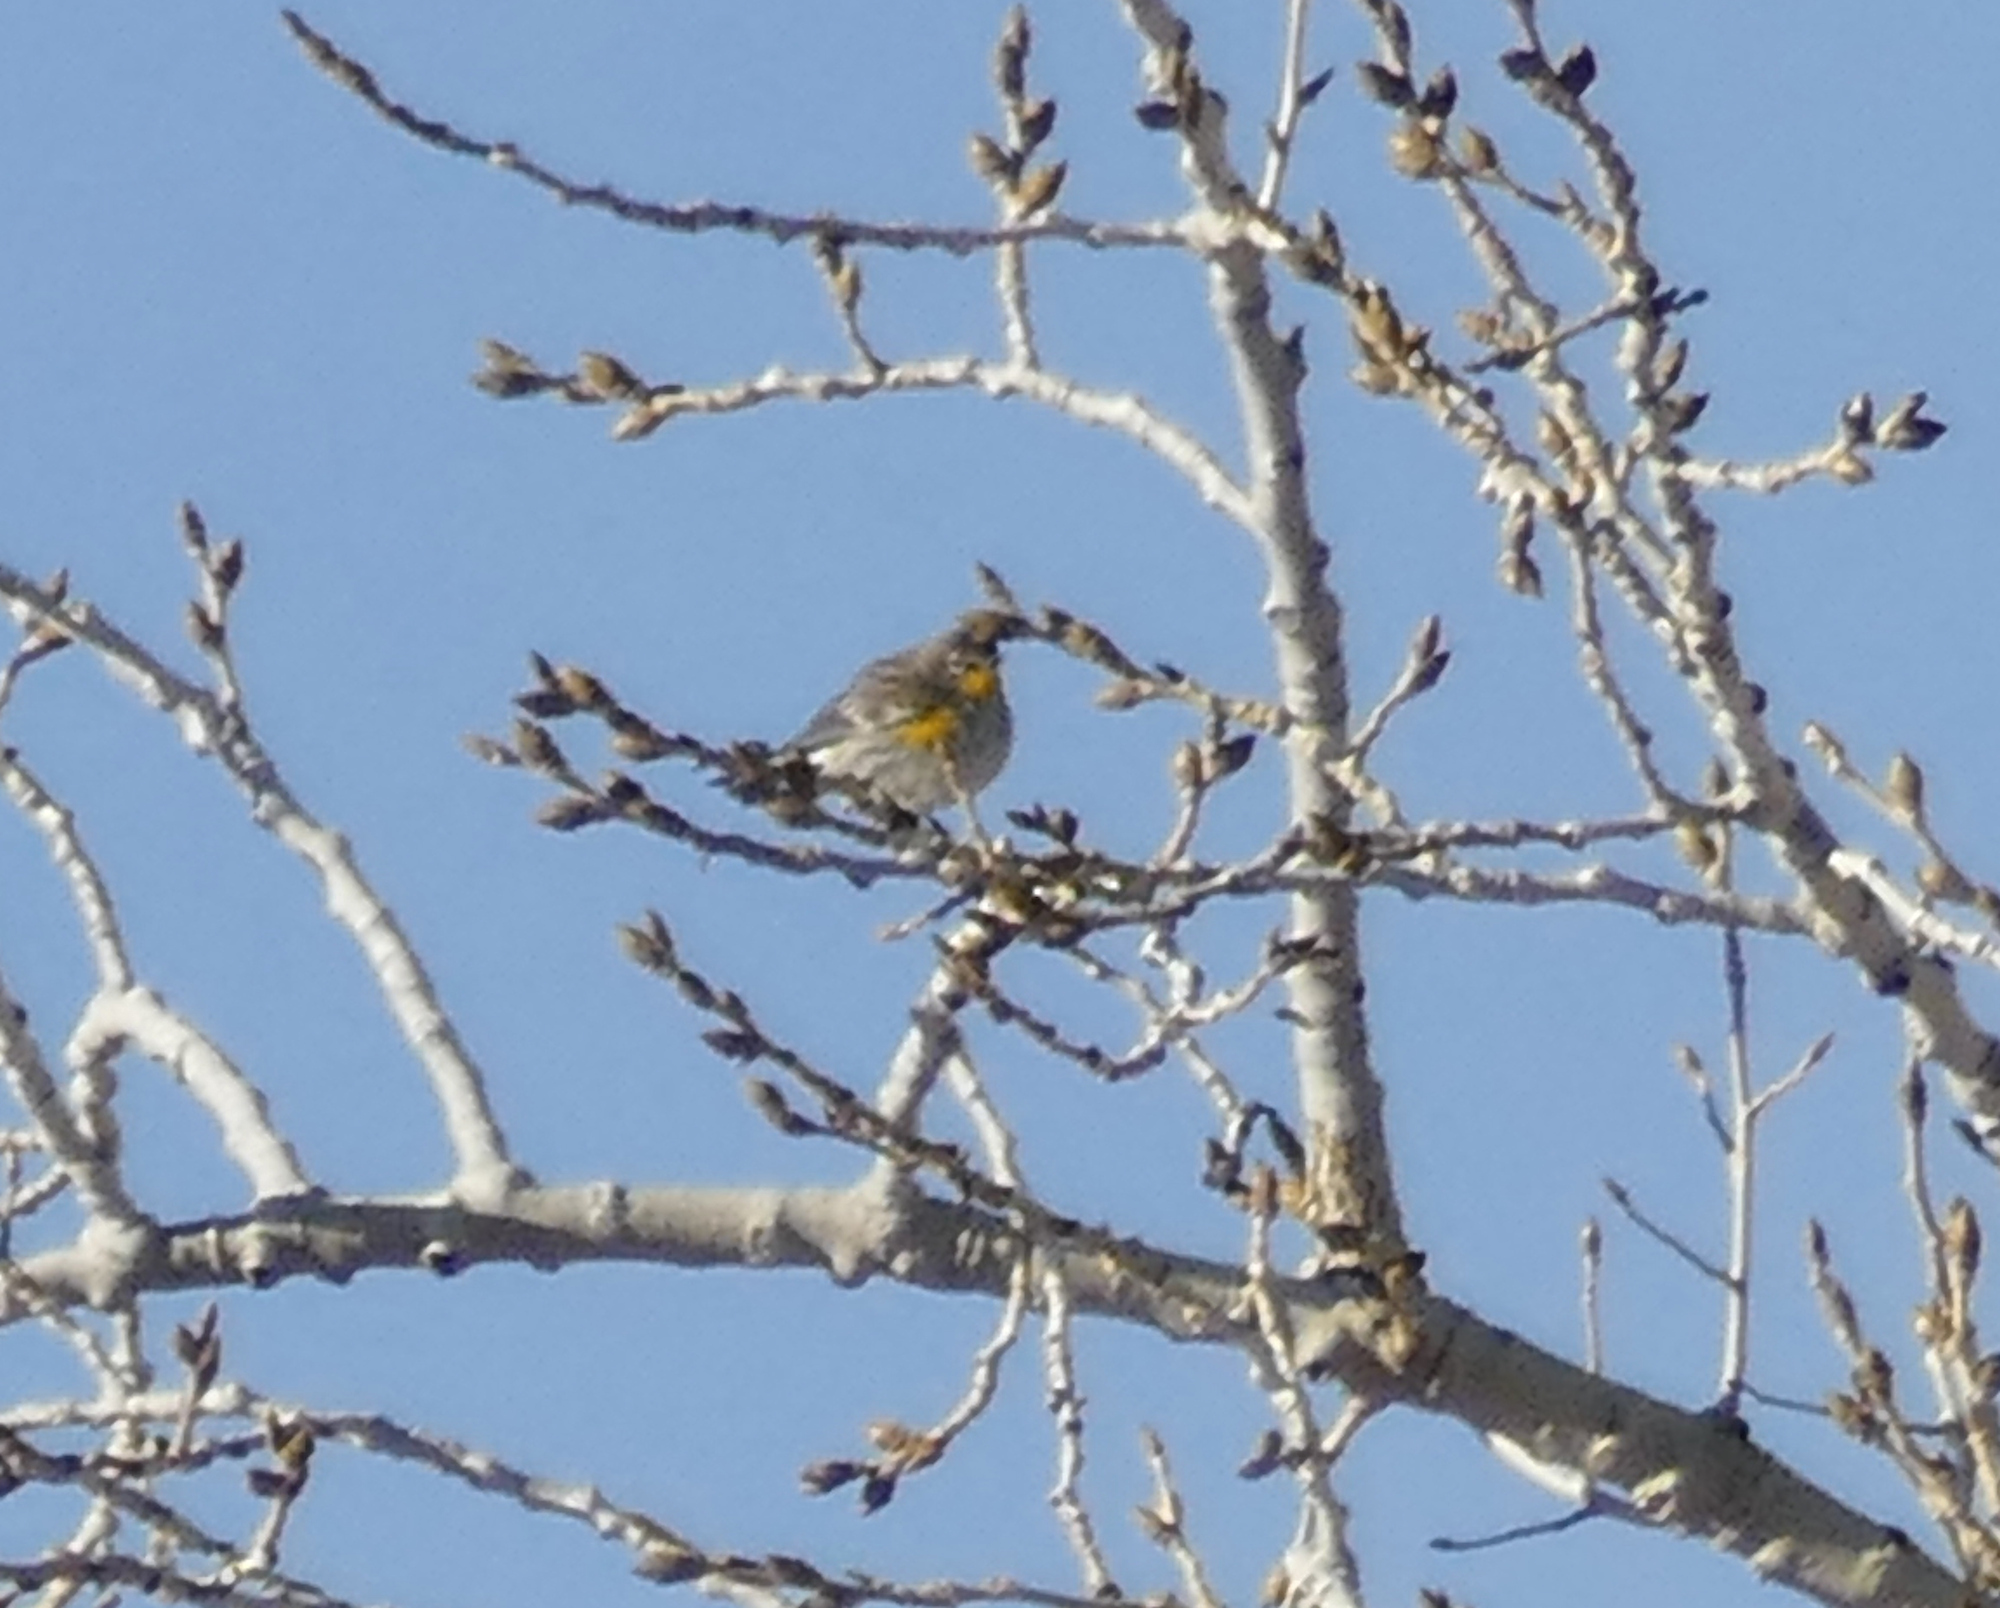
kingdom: Animalia
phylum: Chordata
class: Aves
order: Passeriformes
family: Parulidae
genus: Setophaga
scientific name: Setophaga auduboni
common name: Audubon's warbler
